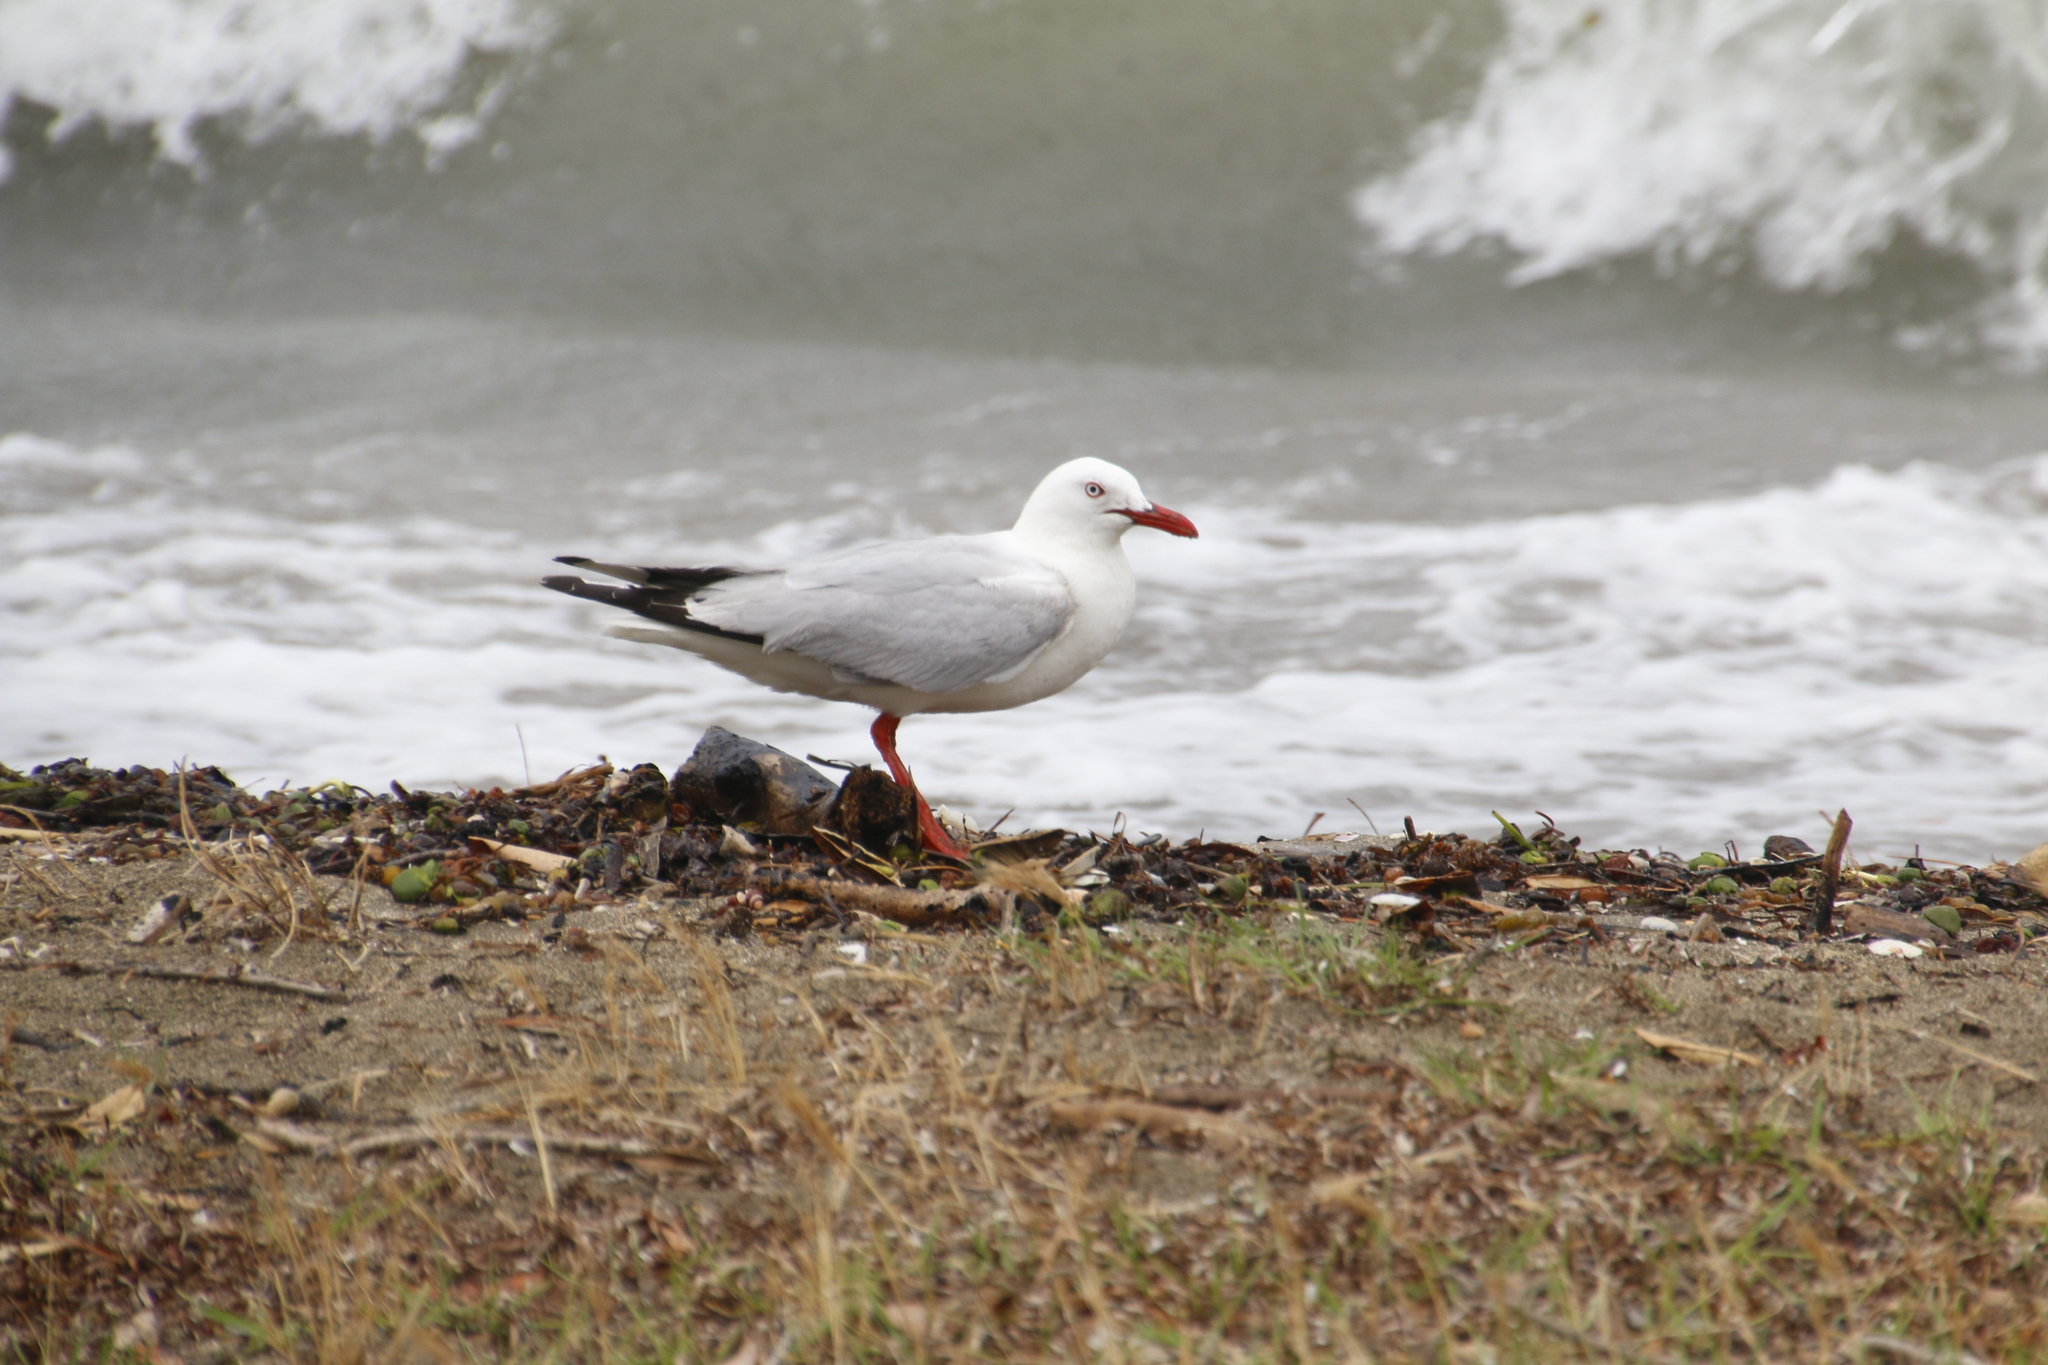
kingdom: Animalia
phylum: Chordata
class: Aves
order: Charadriiformes
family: Laridae
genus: Chroicocephalus
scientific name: Chroicocephalus novaehollandiae
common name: Silver gull
